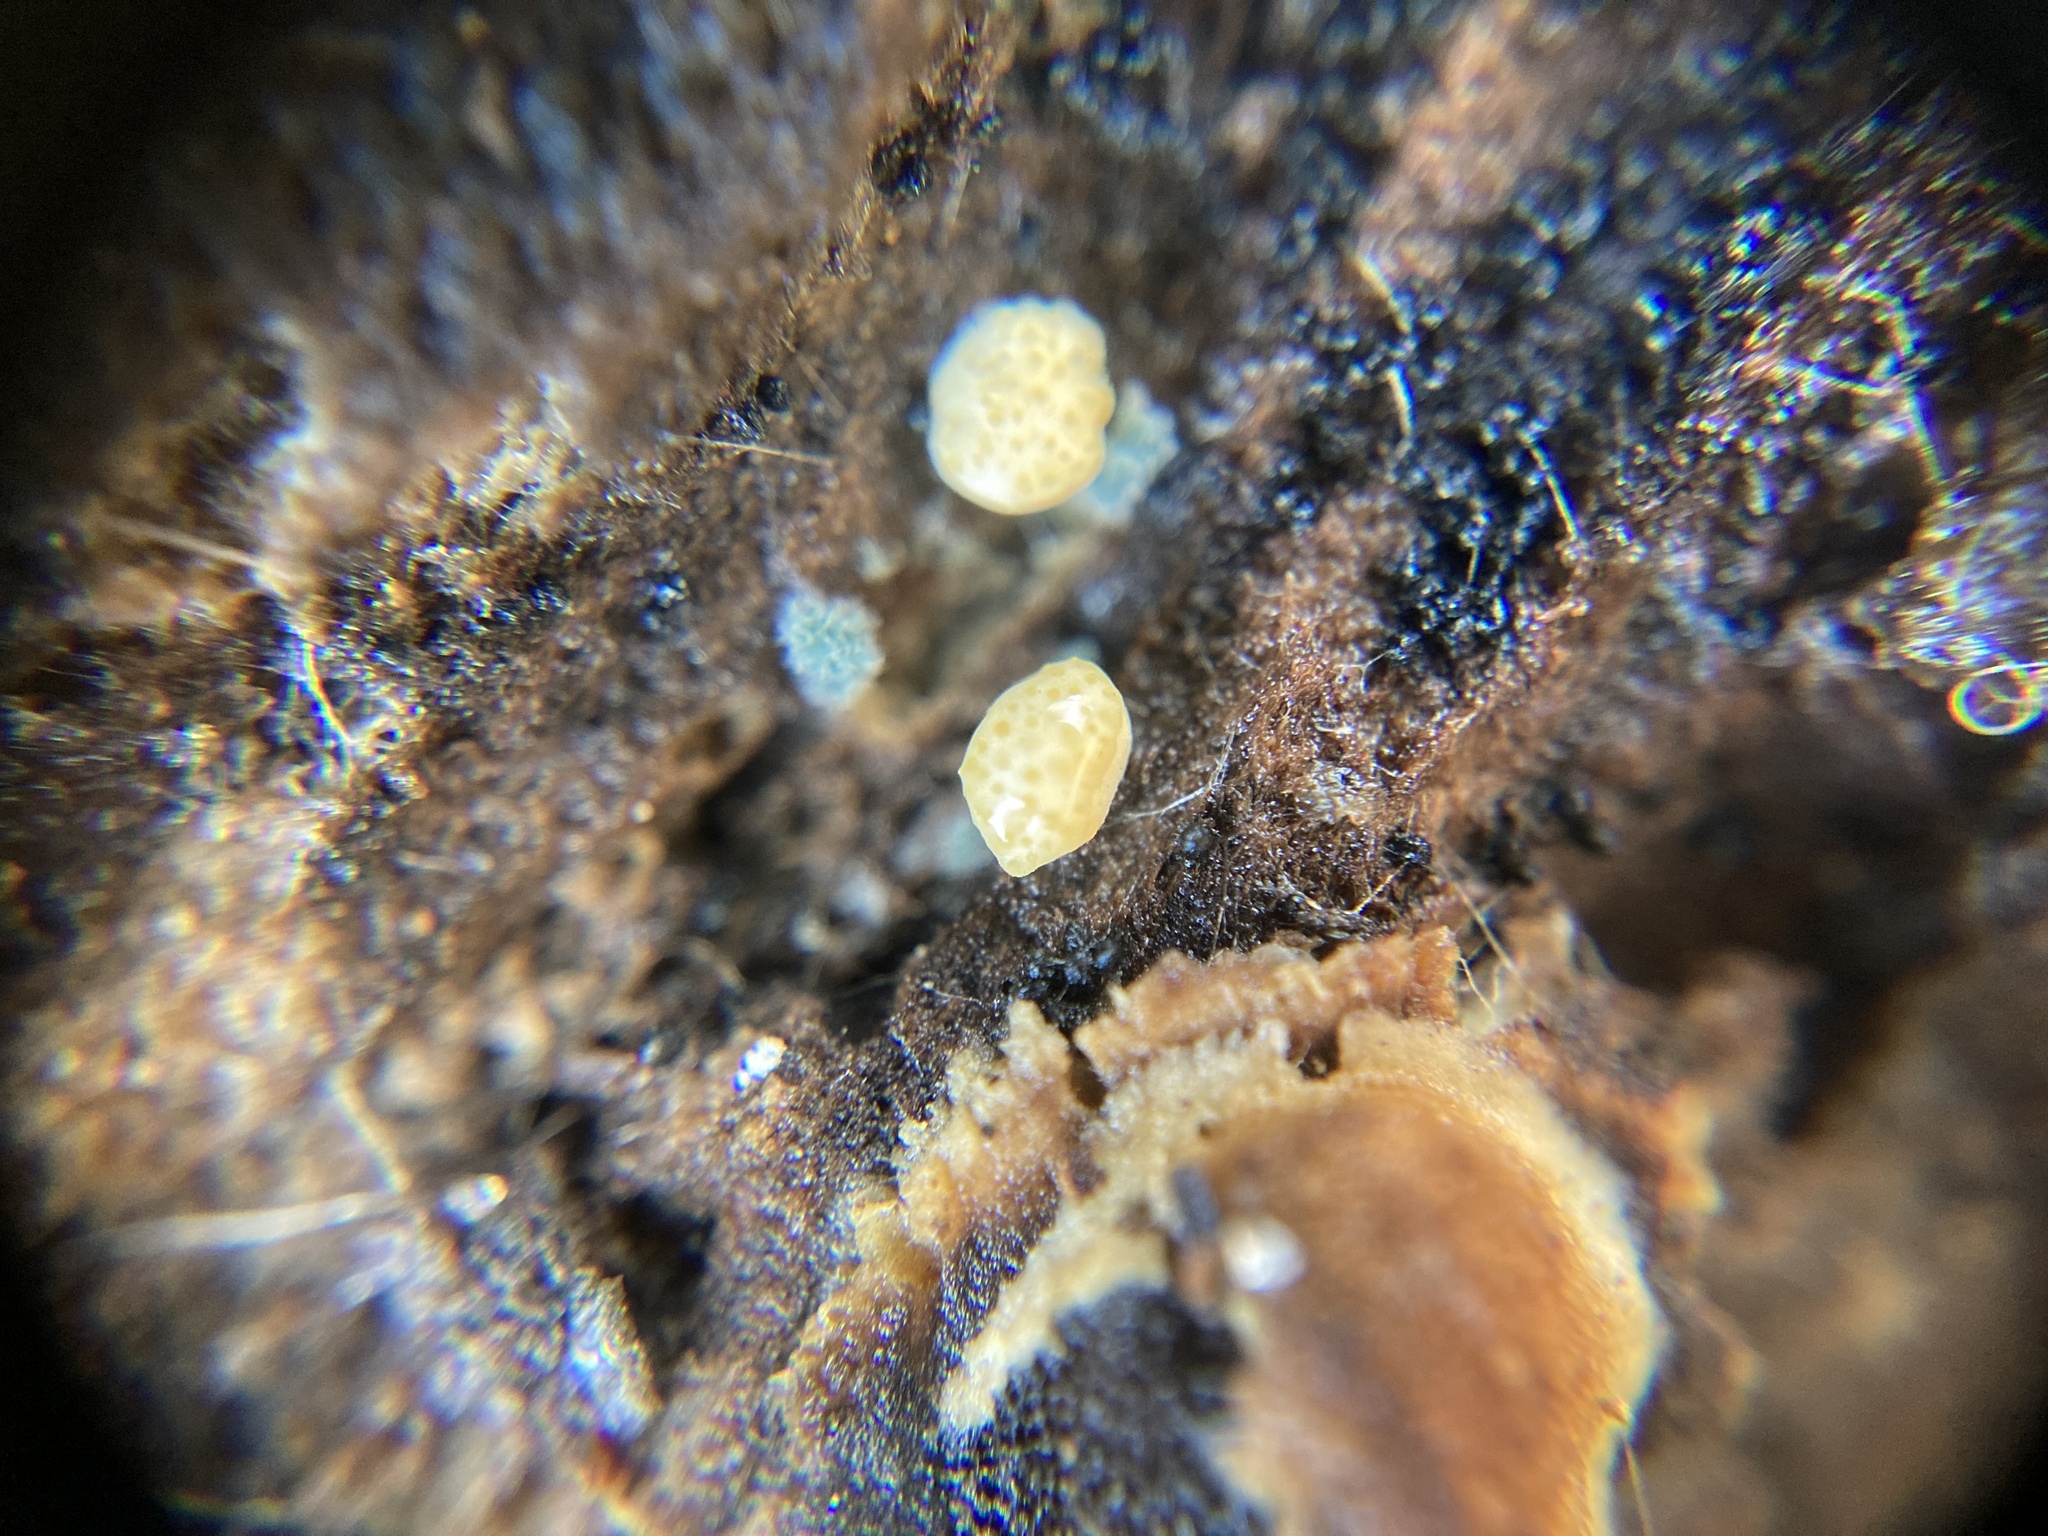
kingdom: Fungi
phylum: Ascomycota
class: Sordariomycetes
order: Hypocreales
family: Hypocreaceae
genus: Trichoderma
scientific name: Trichoderma gelatinosum
